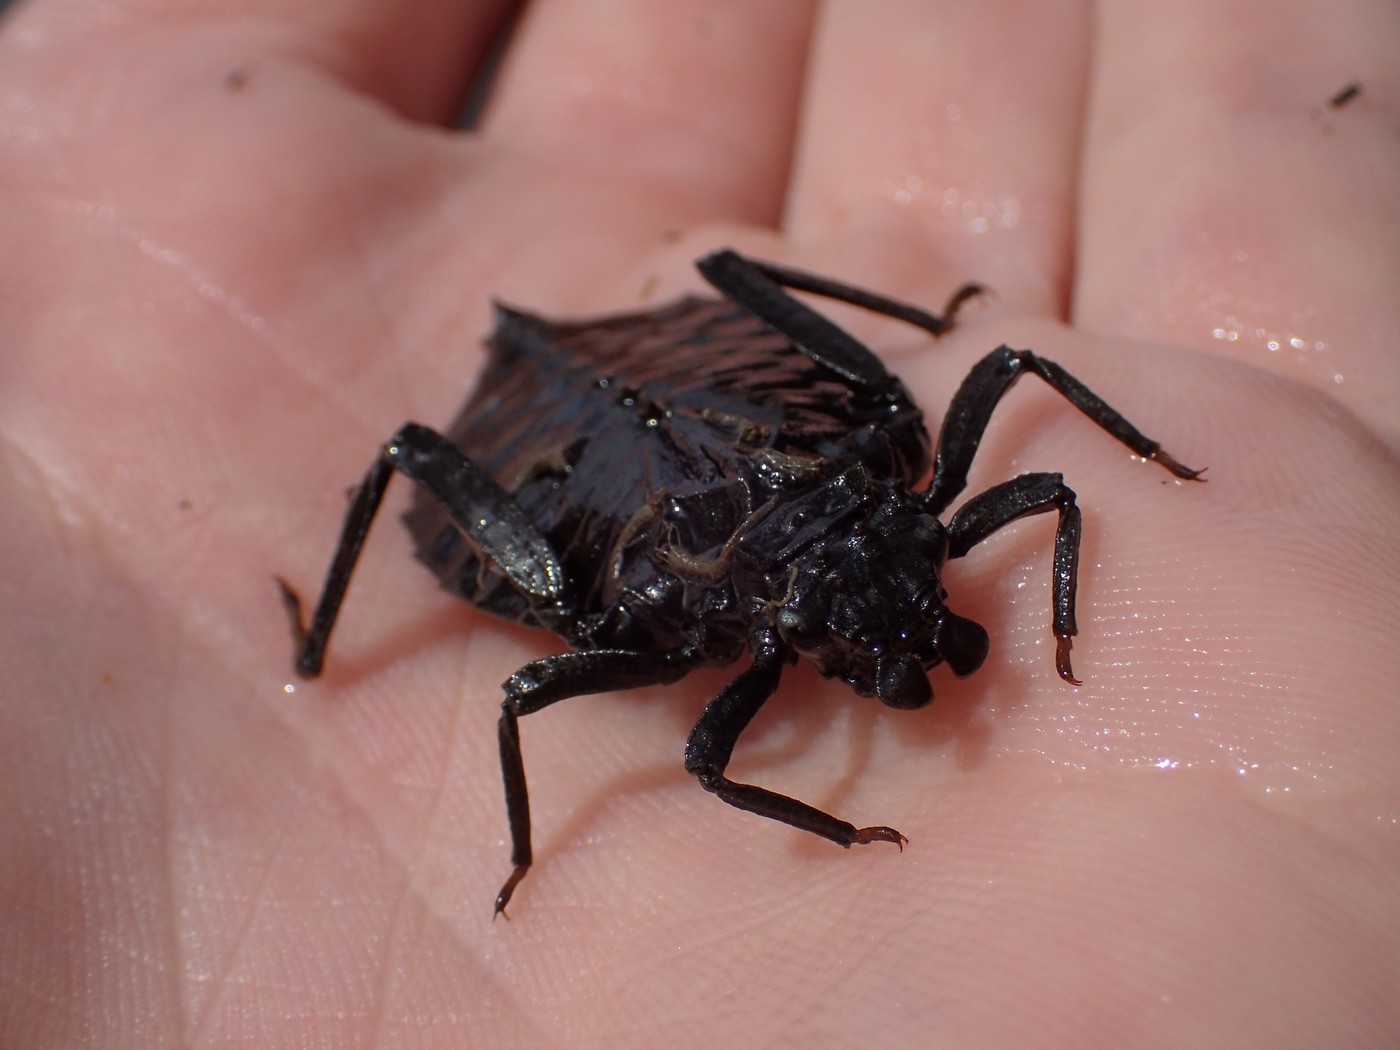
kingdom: Animalia
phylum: Arthropoda
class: Insecta
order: Odonata
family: Gomphidae
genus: Hagenius
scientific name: Hagenius brevistylus
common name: Dragonhunter
